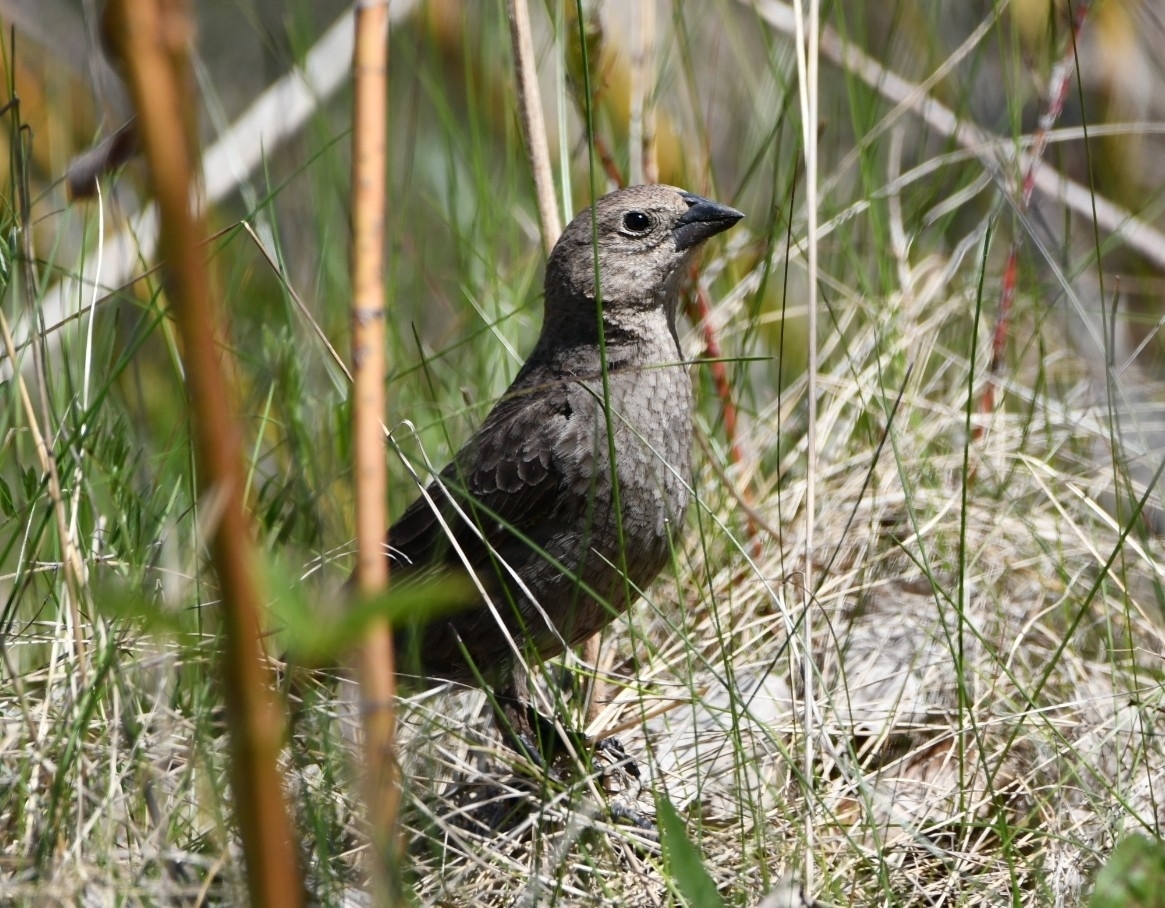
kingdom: Animalia
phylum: Chordata
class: Aves
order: Passeriformes
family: Icteridae
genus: Molothrus
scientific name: Molothrus ater
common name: Brown-headed cowbird
